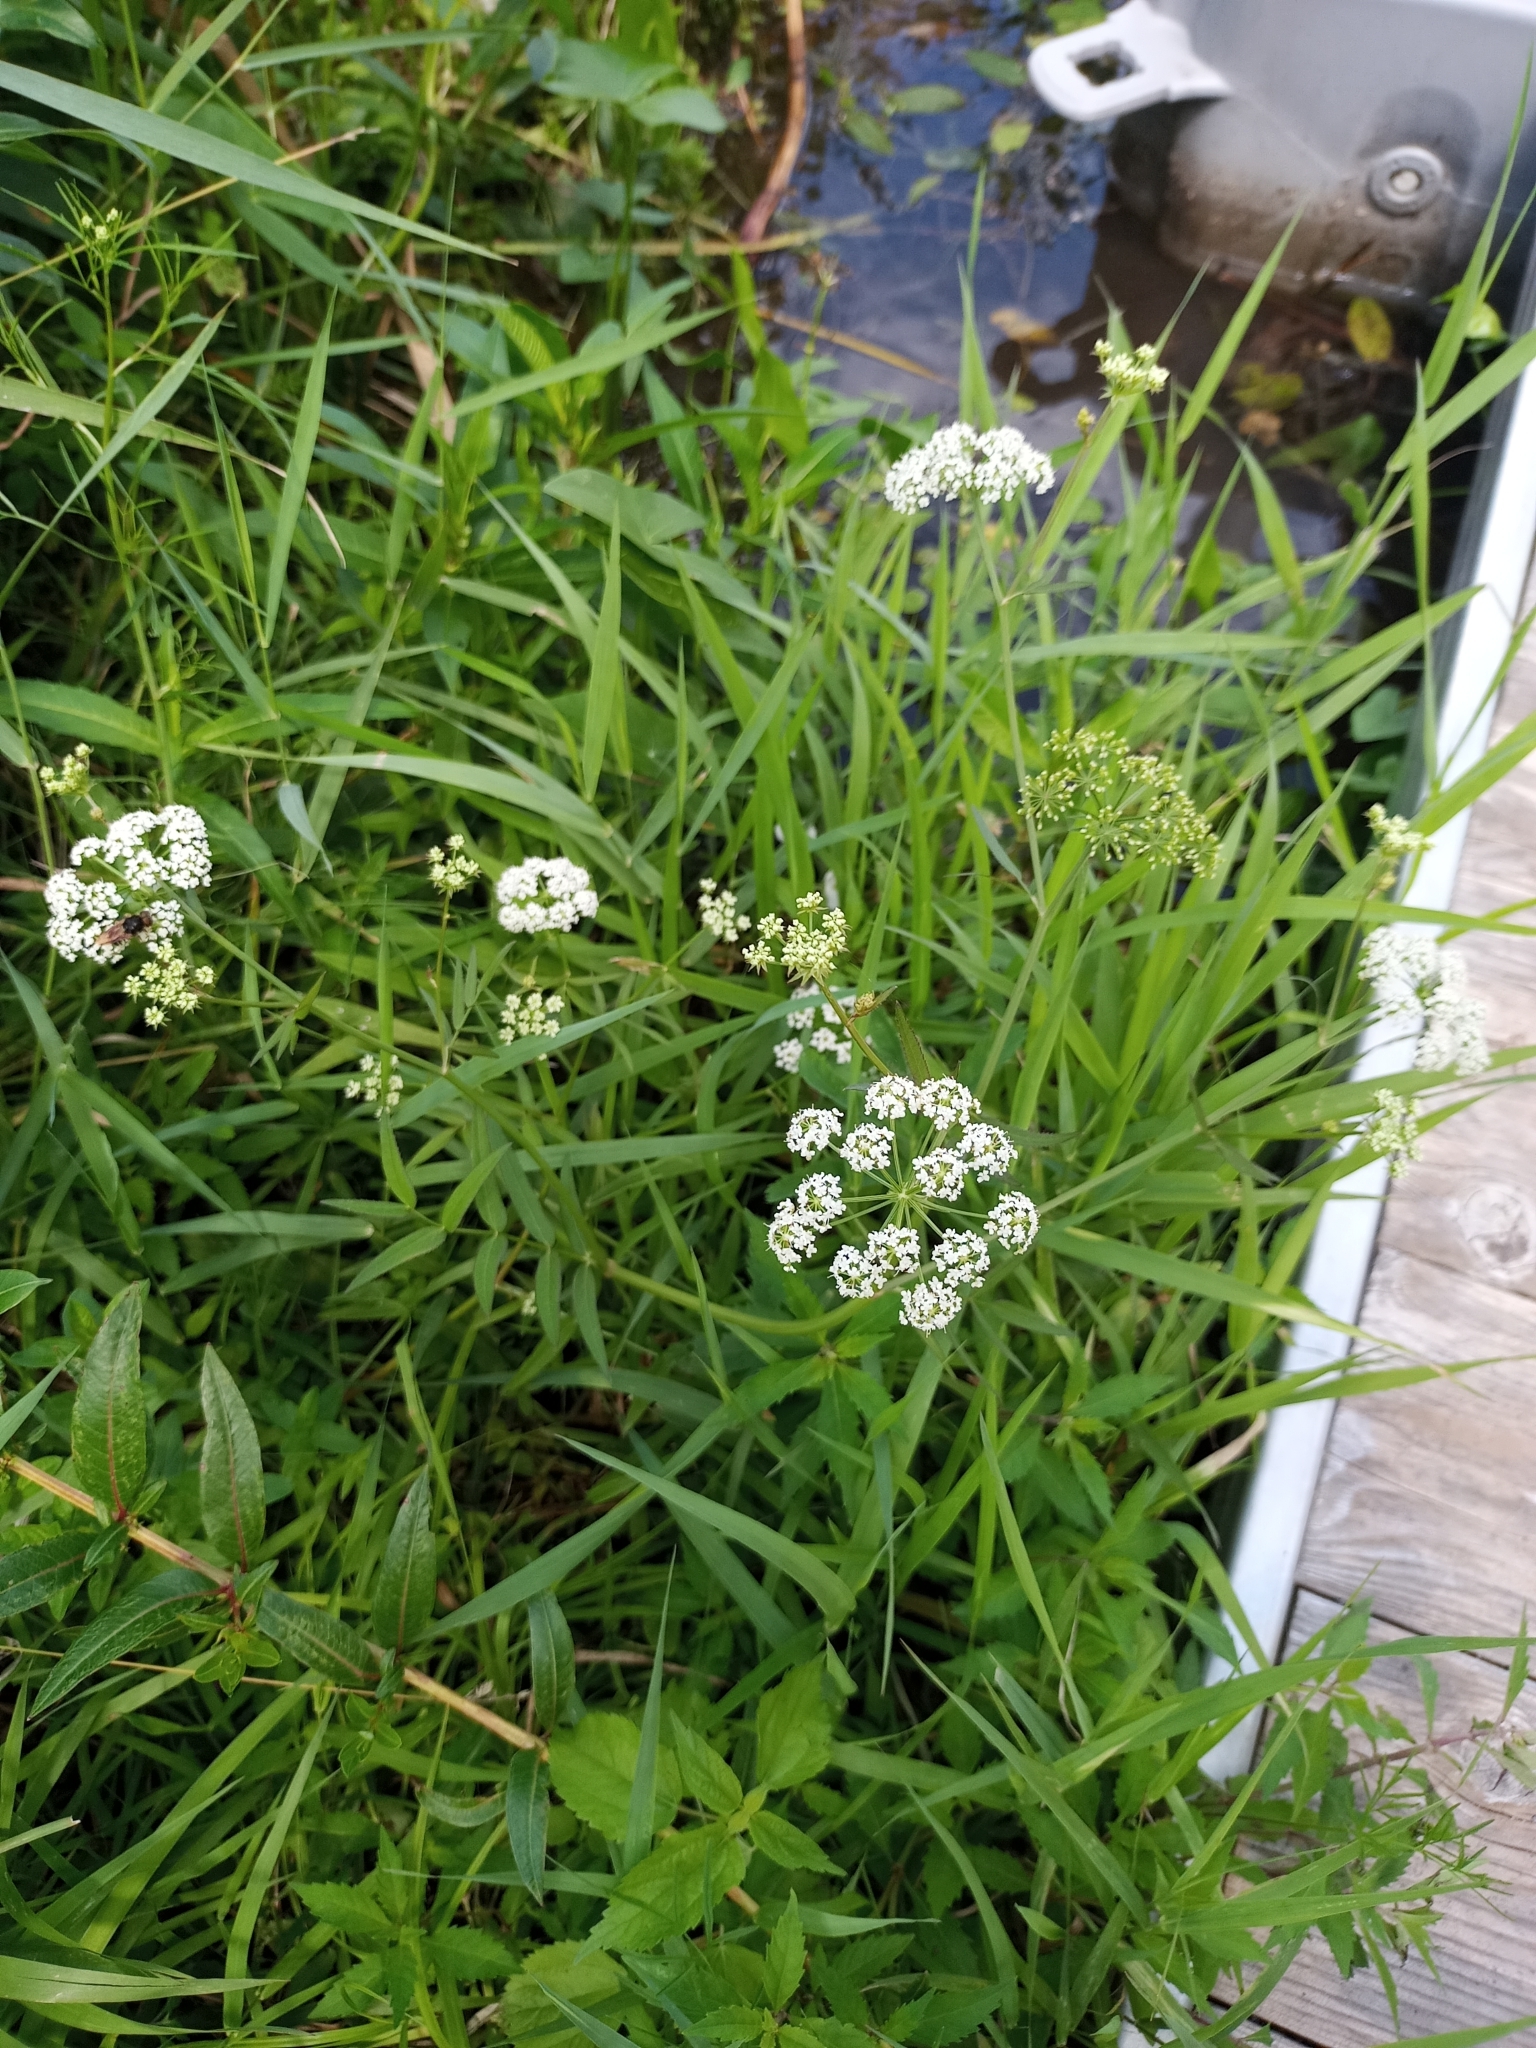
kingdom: Plantae
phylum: Tracheophyta
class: Magnoliopsida
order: Apiales
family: Apiaceae
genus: Sium
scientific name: Sium suave
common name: Hemlock water-parsnip
